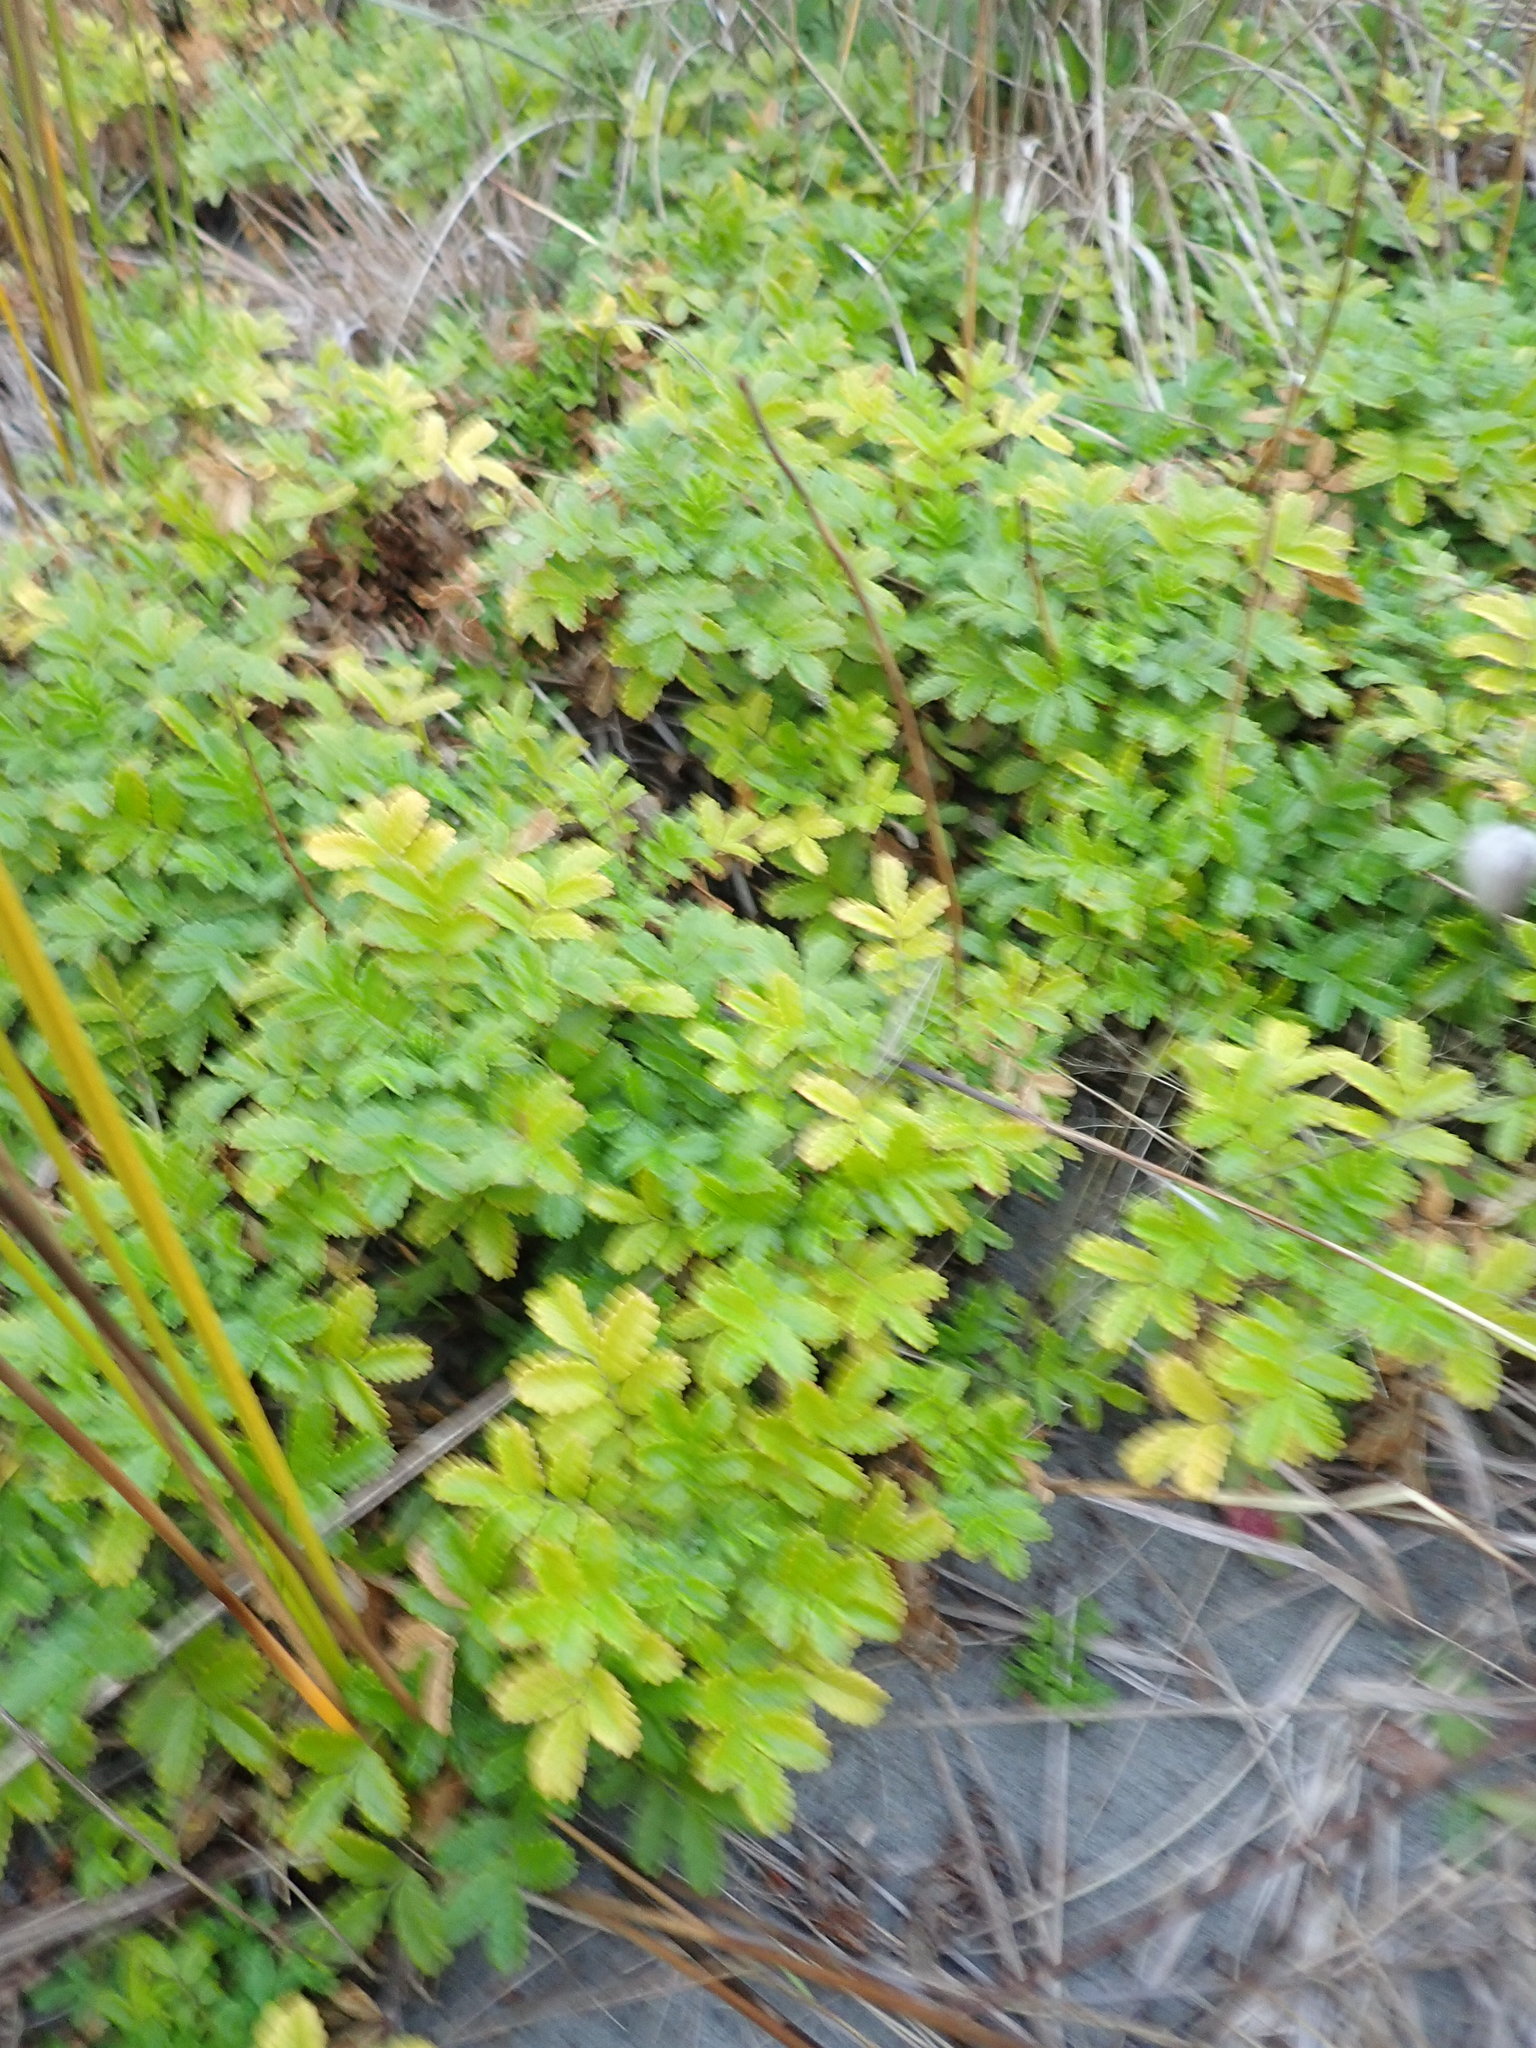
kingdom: Plantae
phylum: Tracheophyta
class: Magnoliopsida
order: Rosales
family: Rosaceae
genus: Acaena
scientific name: Acaena novae-zelandiae
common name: Pirri-pirri-bur
